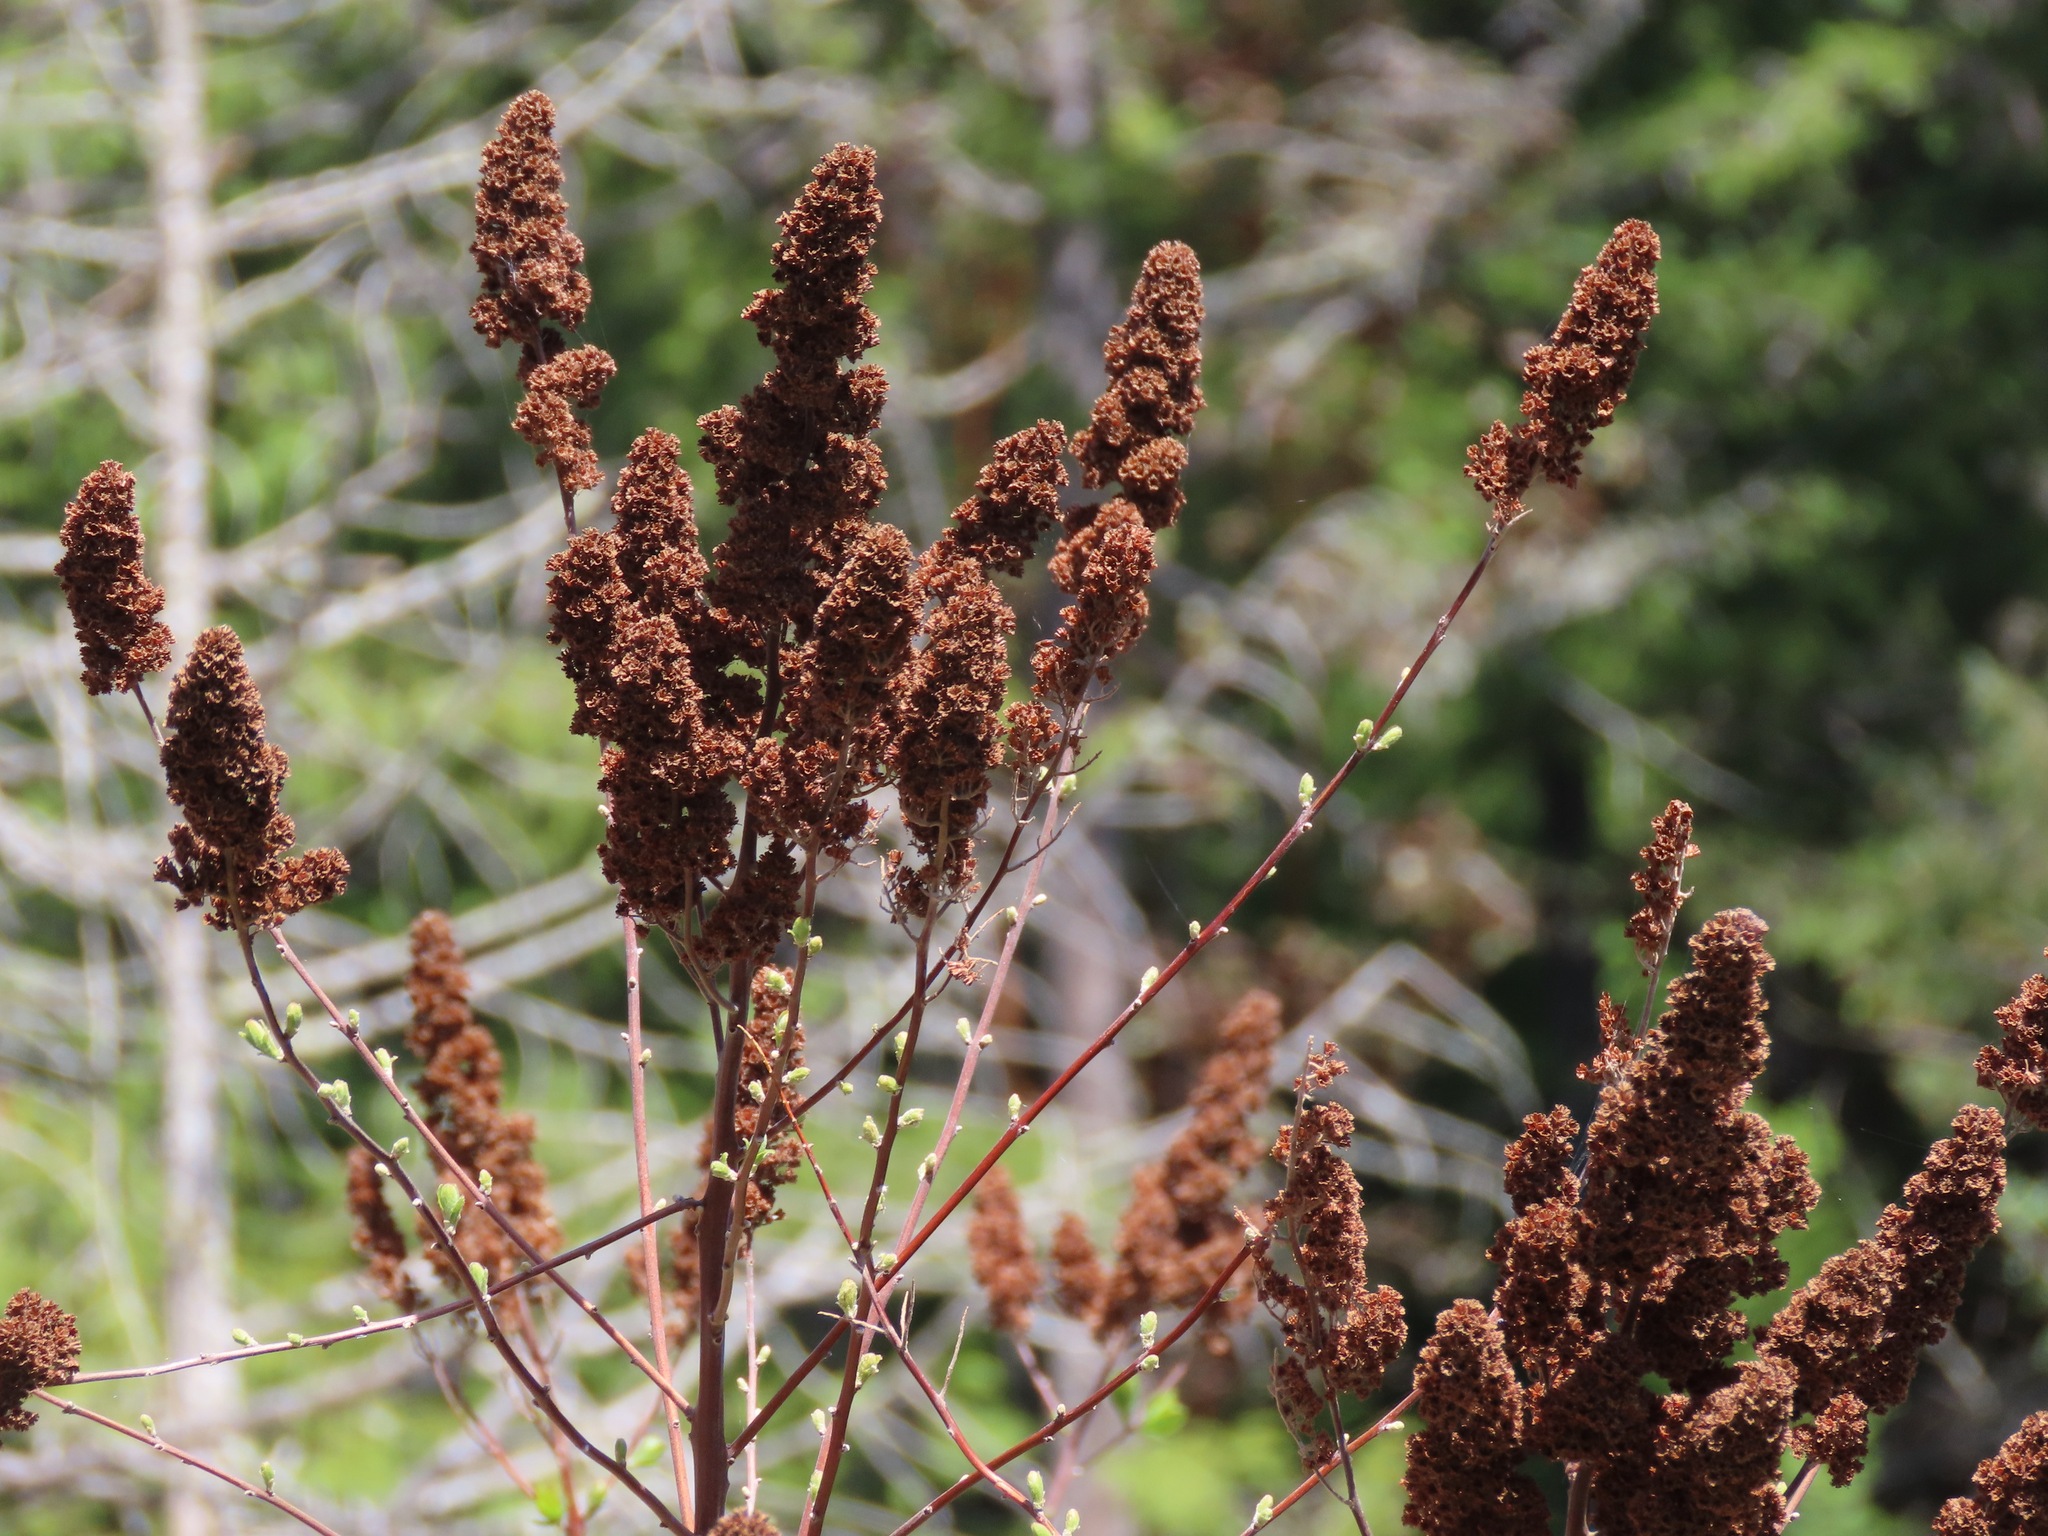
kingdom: Plantae
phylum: Tracheophyta
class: Magnoliopsida
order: Rosales
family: Rosaceae
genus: Spiraea
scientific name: Spiraea douglasii
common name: Steeplebush
